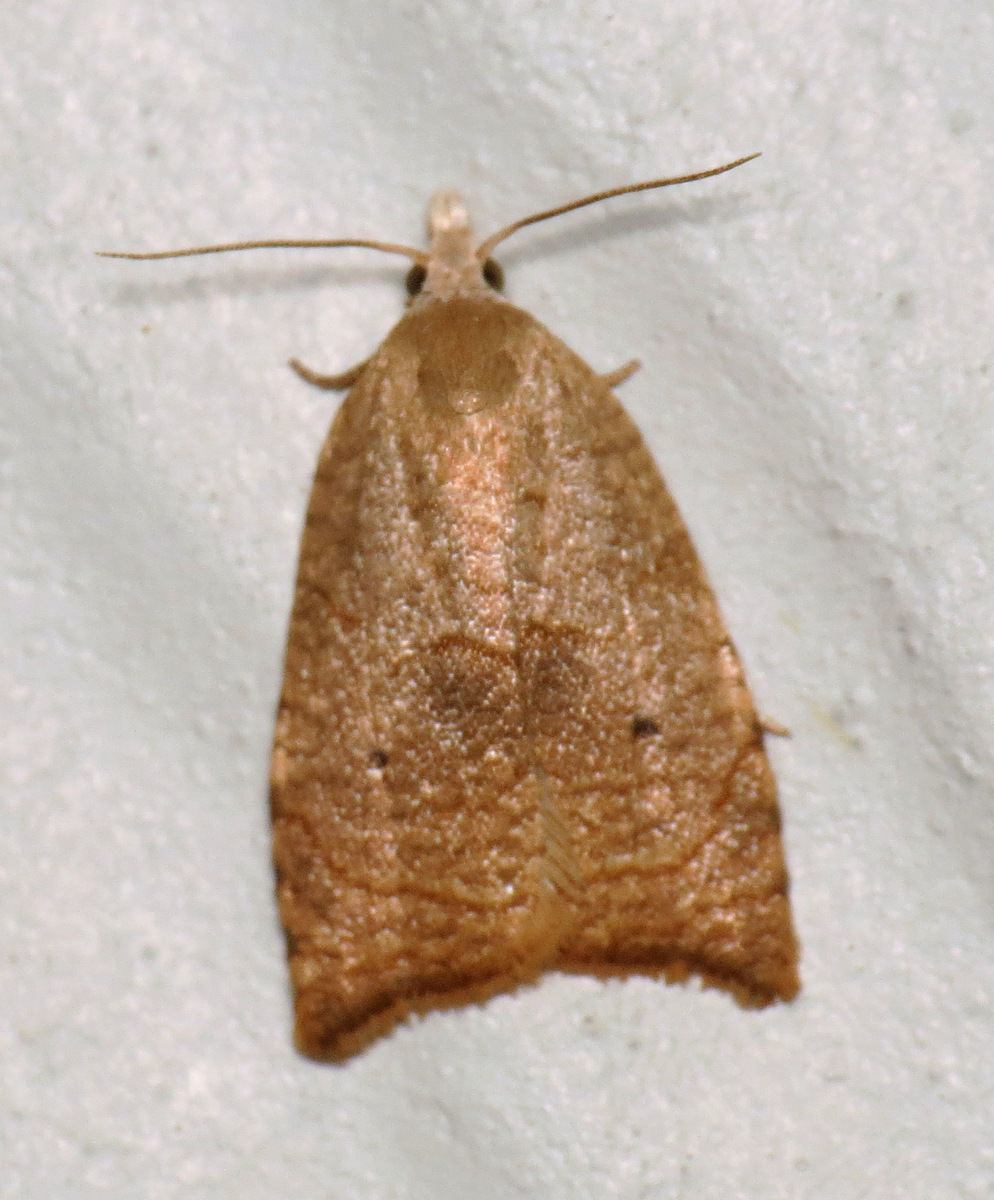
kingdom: Animalia
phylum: Arthropoda
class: Insecta
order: Lepidoptera
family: Tortricidae
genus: Coelostathma
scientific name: Coelostathma discopunctana
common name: Batman moth
